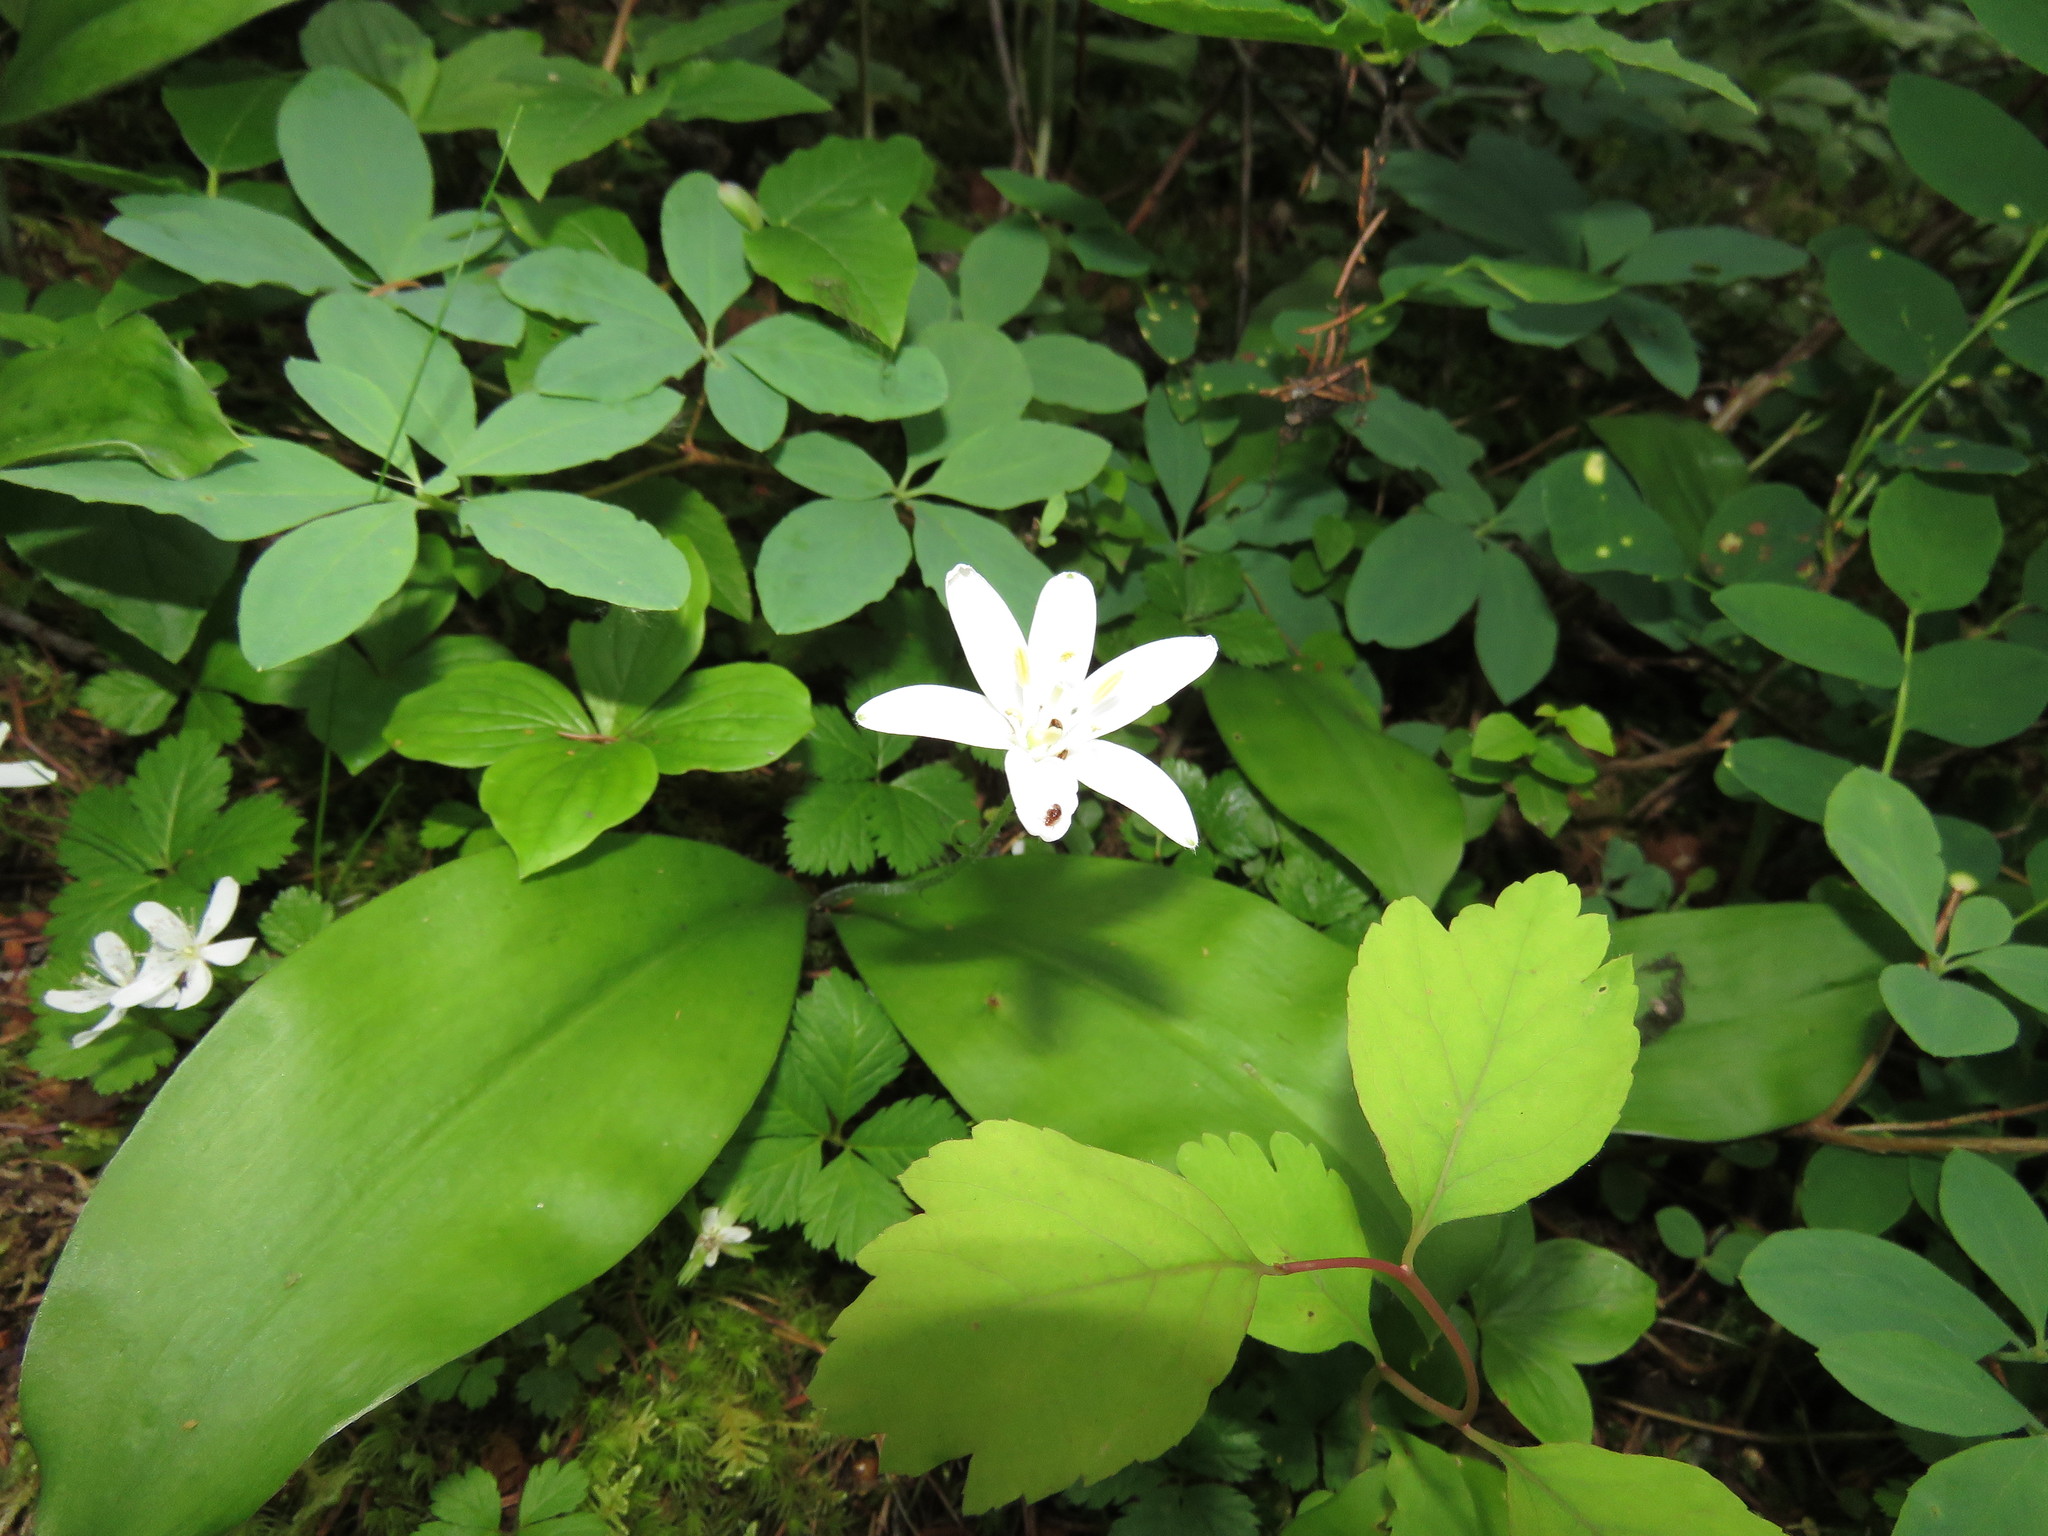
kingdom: Plantae
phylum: Tracheophyta
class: Liliopsida
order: Liliales
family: Liliaceae
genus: Clintonia
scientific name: Clintonia uniflora
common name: Queen's cup
